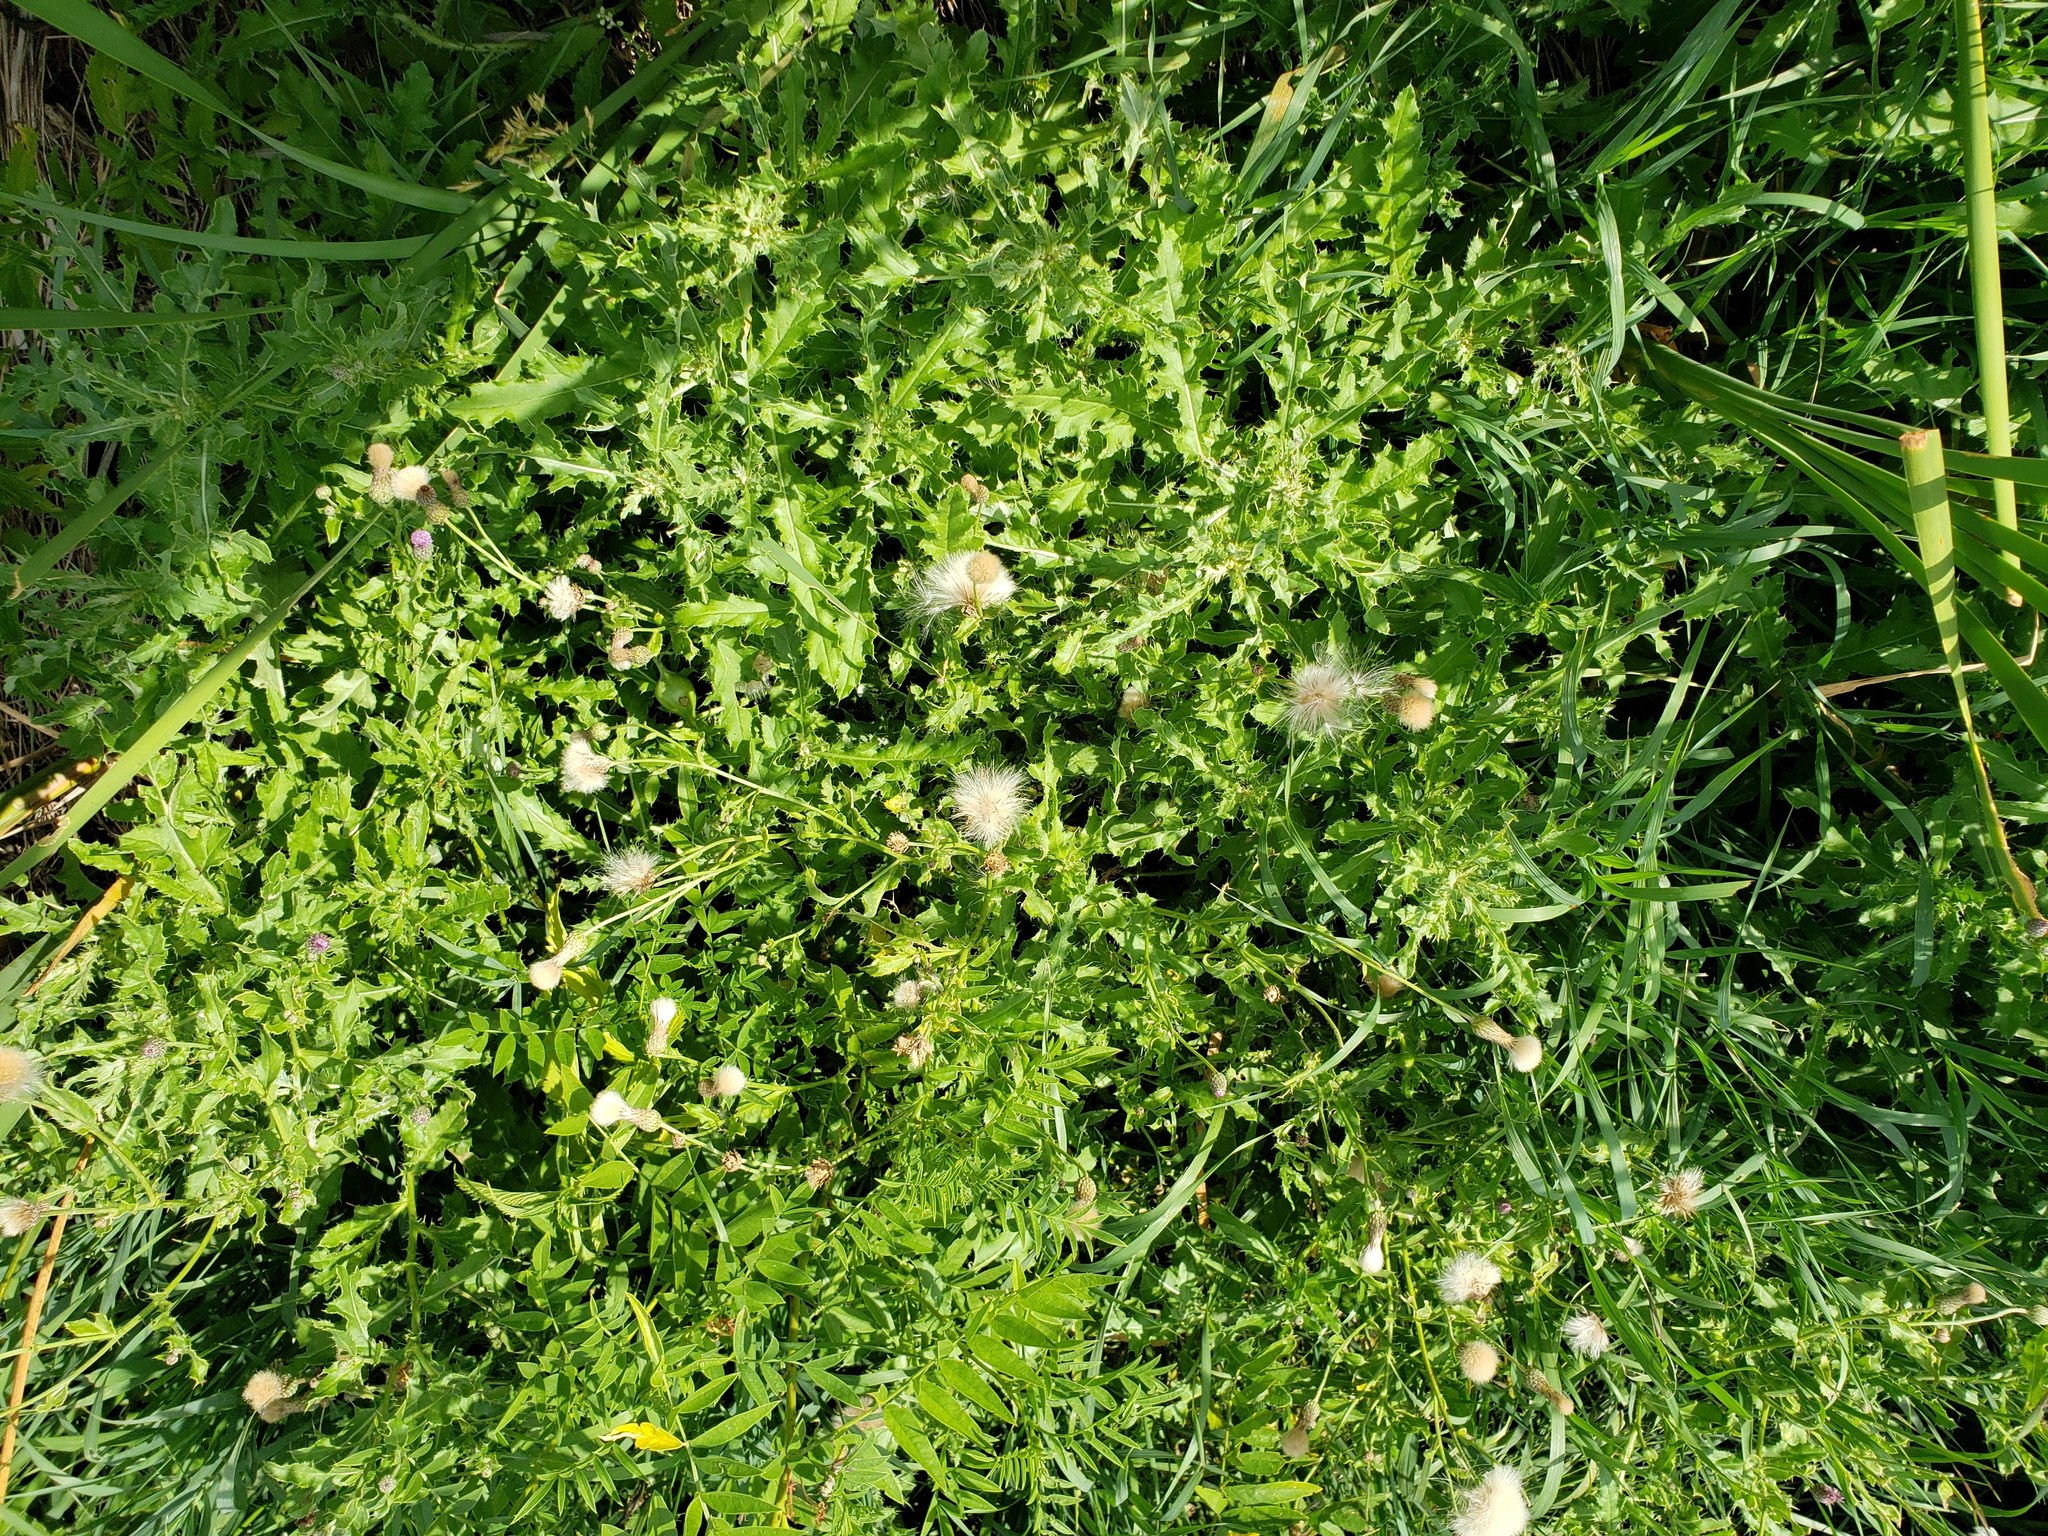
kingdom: Plantae
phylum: Tracheophyta
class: Magnoliopsida
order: Asterales
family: Asteraceae
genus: Cirsium
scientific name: Cirsium arvense
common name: Creeping thistle
